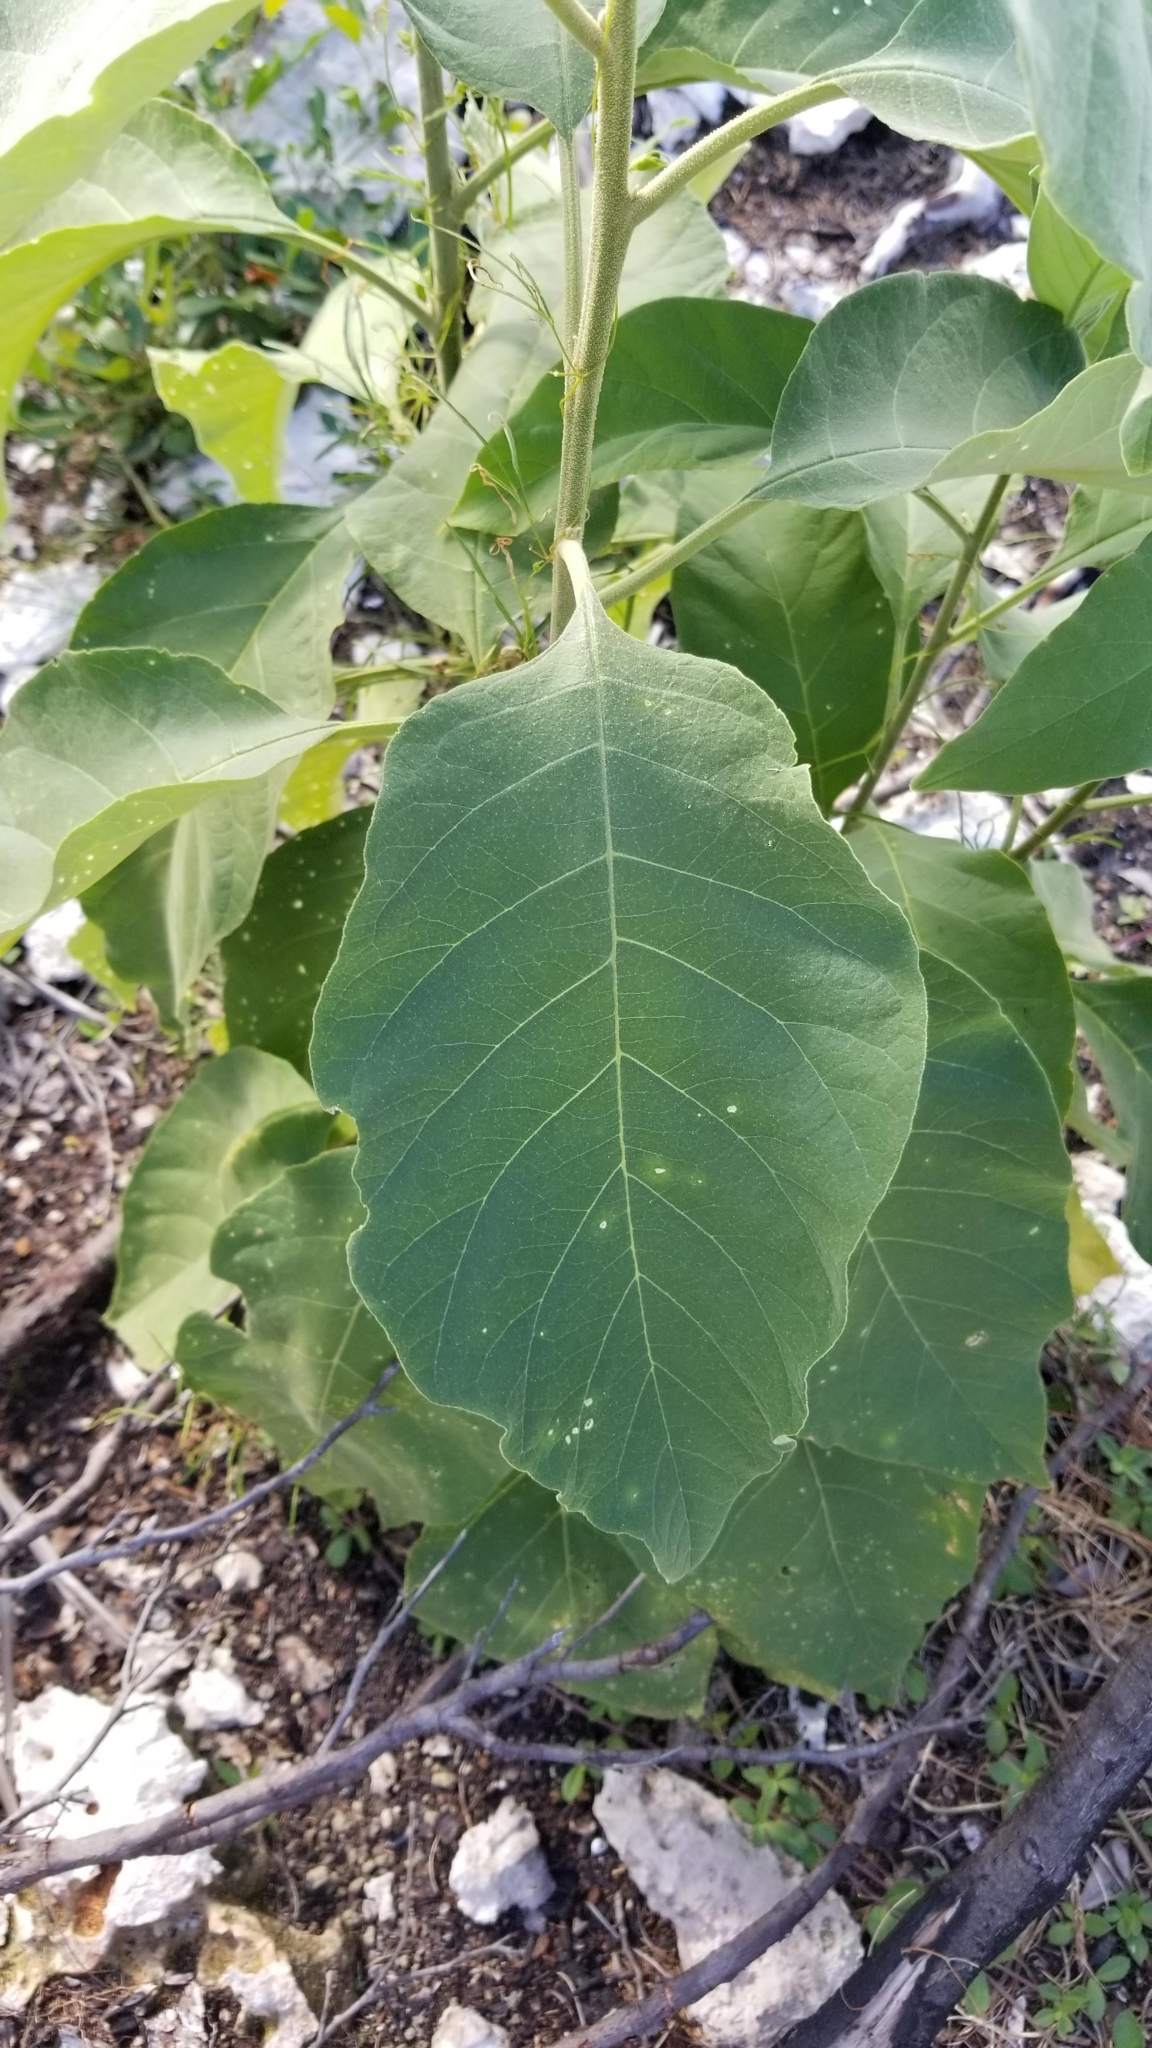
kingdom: Plantae
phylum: Tracheophyta
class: Magnoliopsida
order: Solanales
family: Solanaceae
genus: Solanum
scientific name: Solanum erianthum
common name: Tobacco-tree
